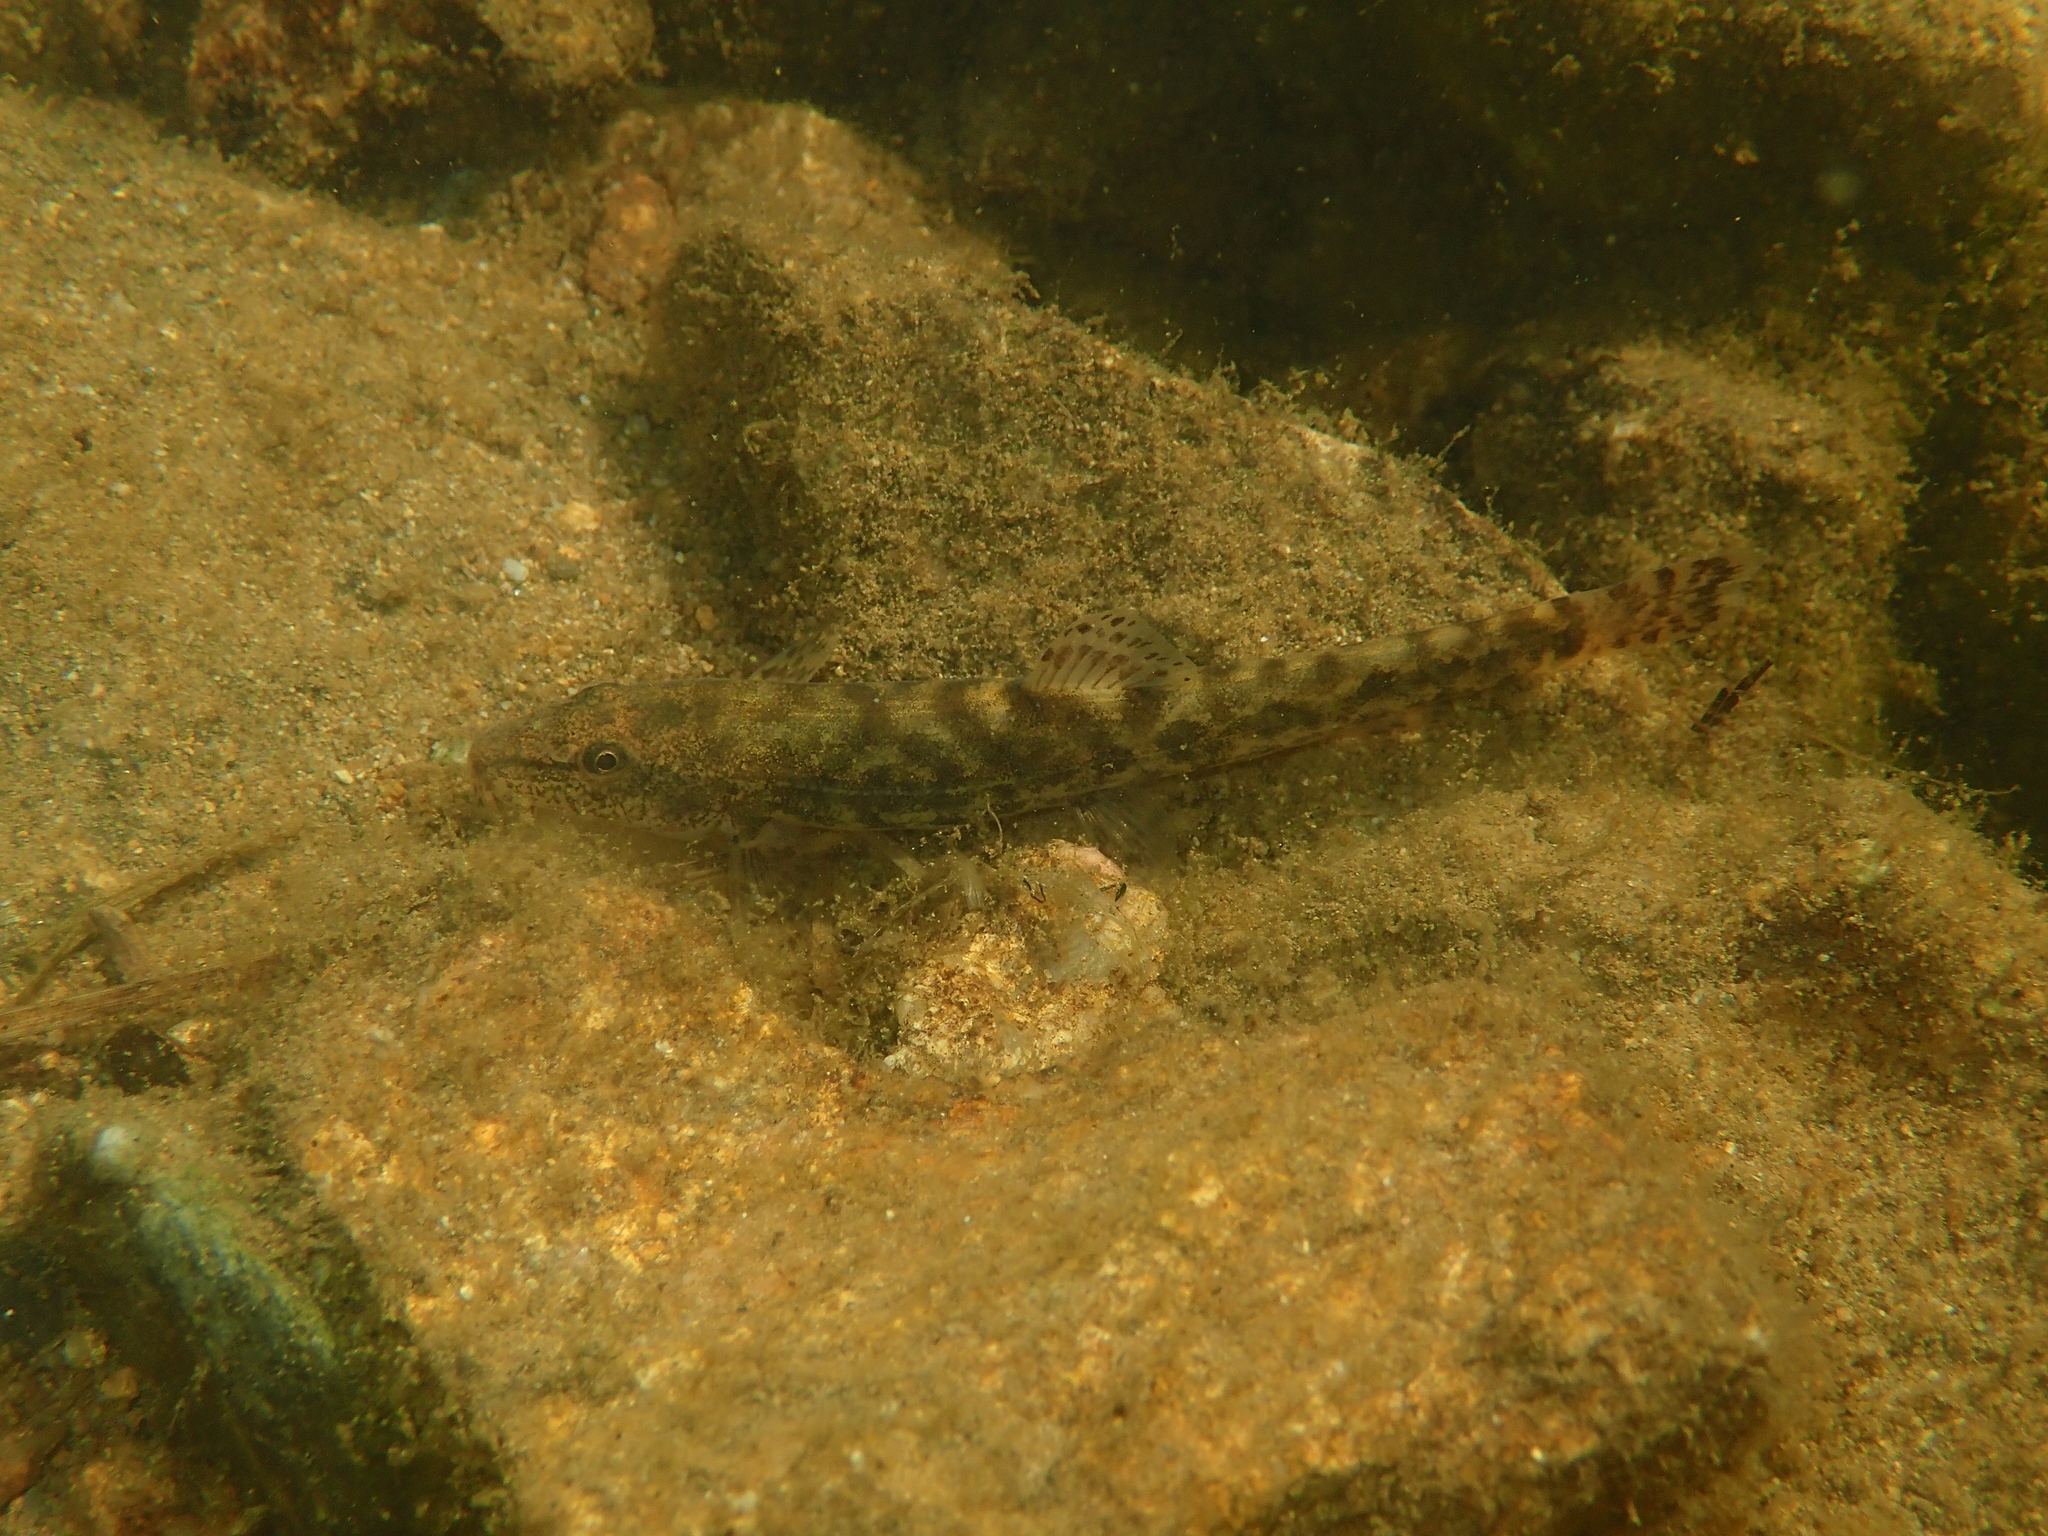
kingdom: Animalia
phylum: Chordata
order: Cypriniformes
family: Nemacheilidae
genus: Barbatula
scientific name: Barbatula barbatula
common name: Stone loach
